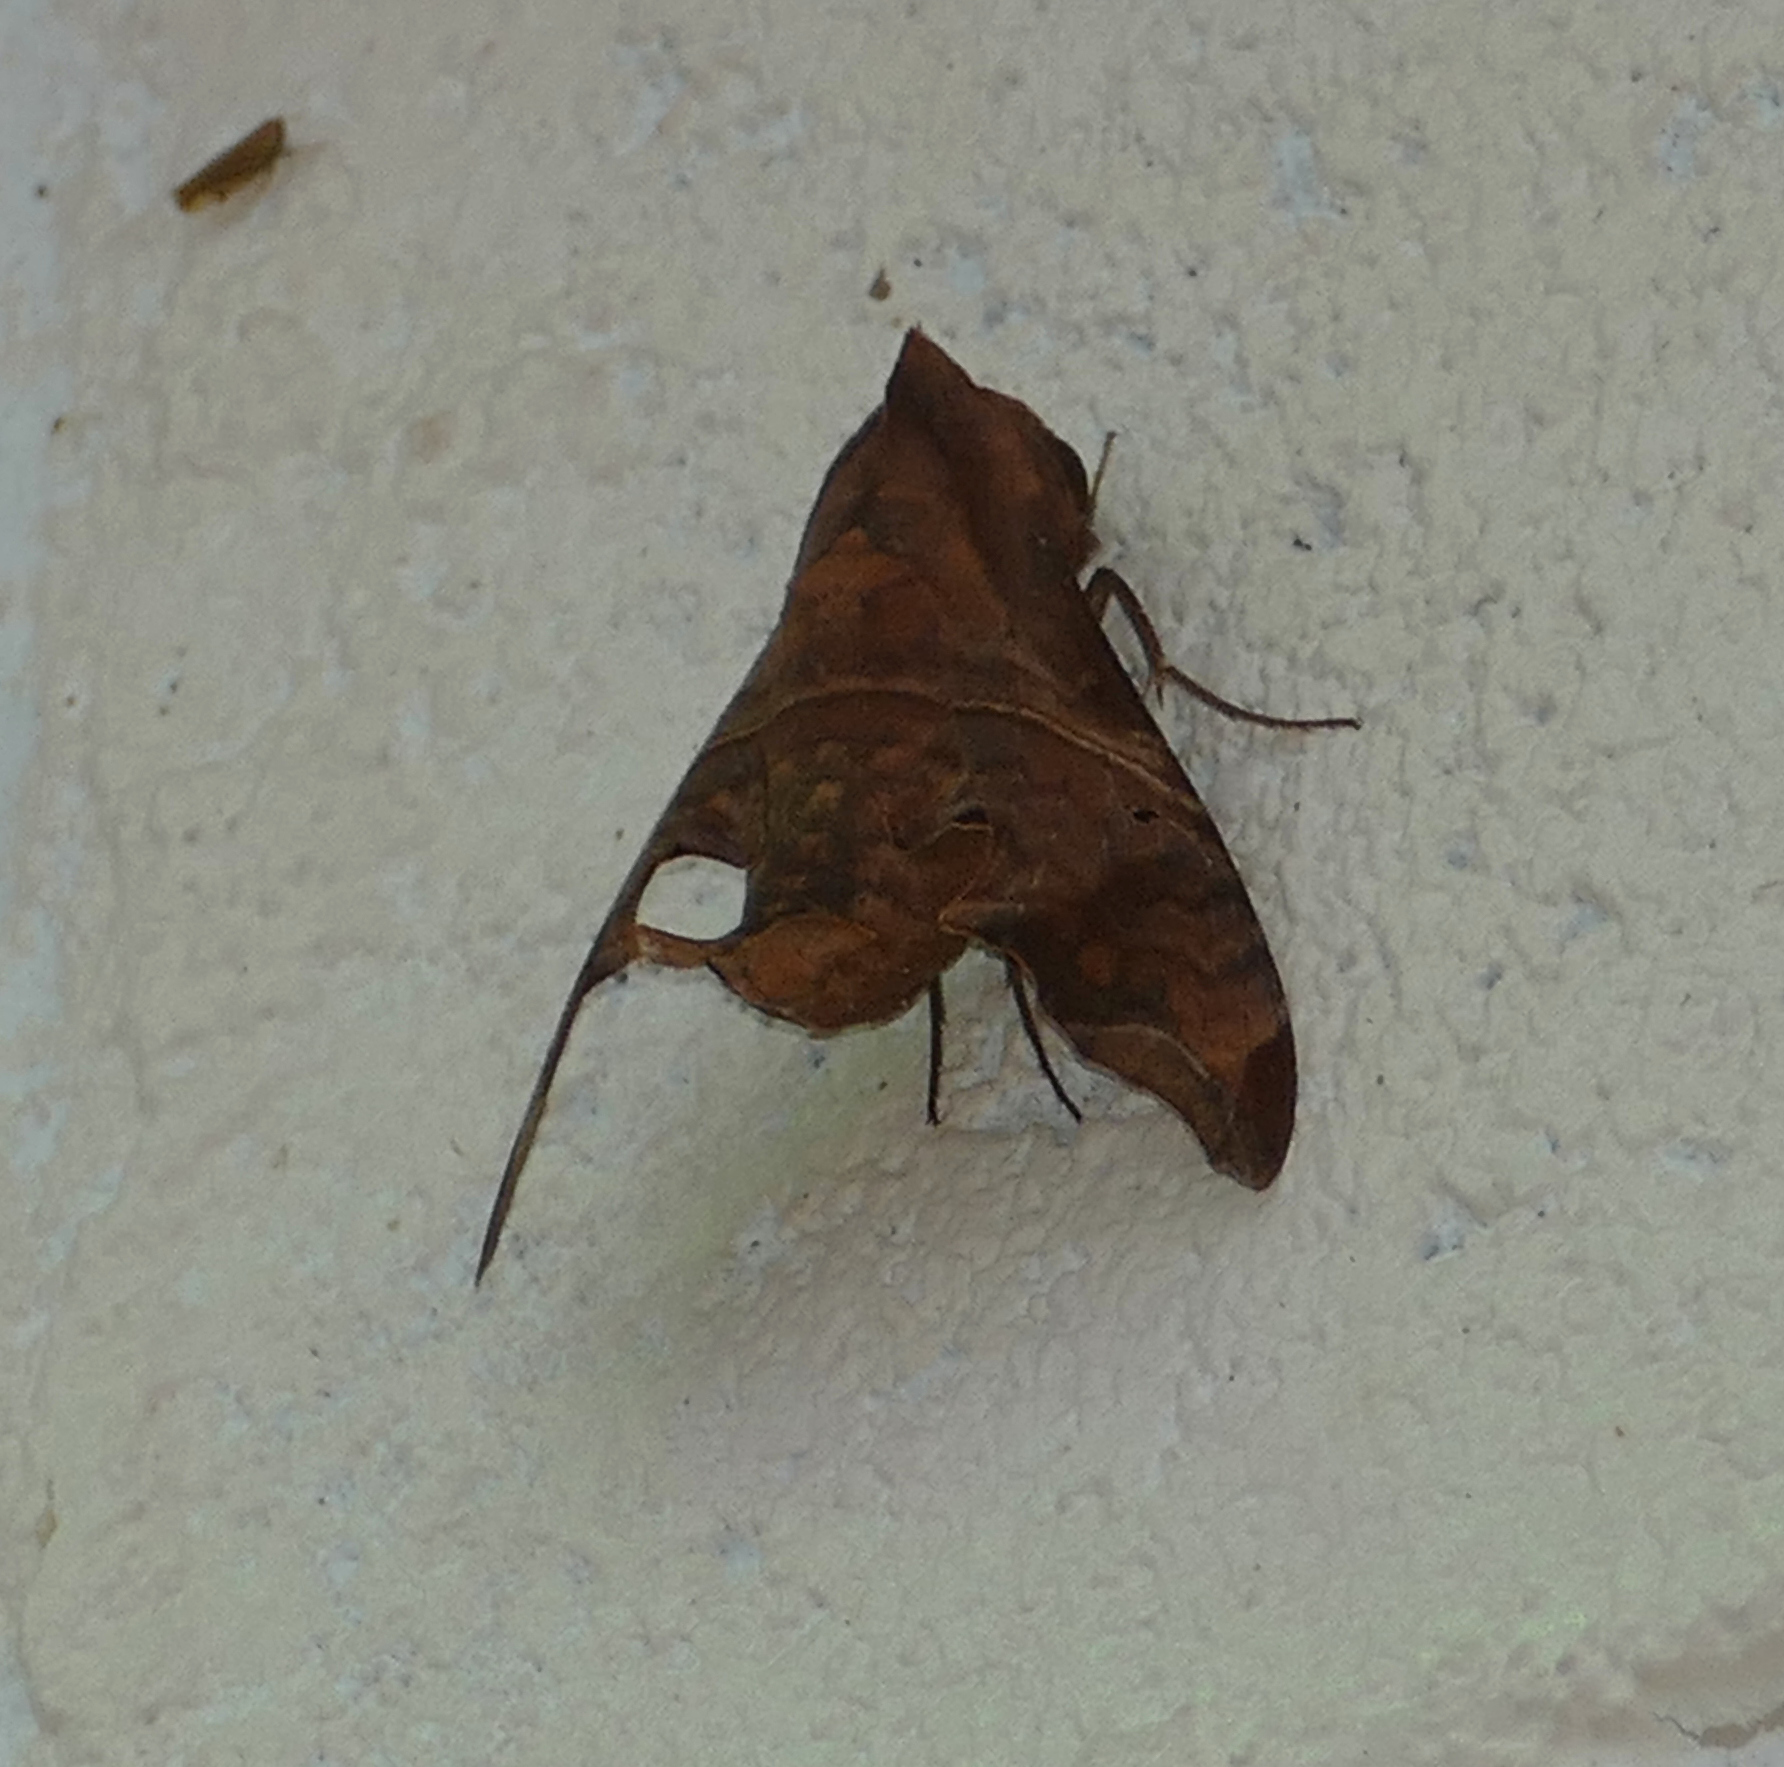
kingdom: Animalia
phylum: Arthropoda
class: Insecta
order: Lepidoptera
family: Sphingidae
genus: Enyo
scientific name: Enyo lugubris
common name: Mournful sphinx
